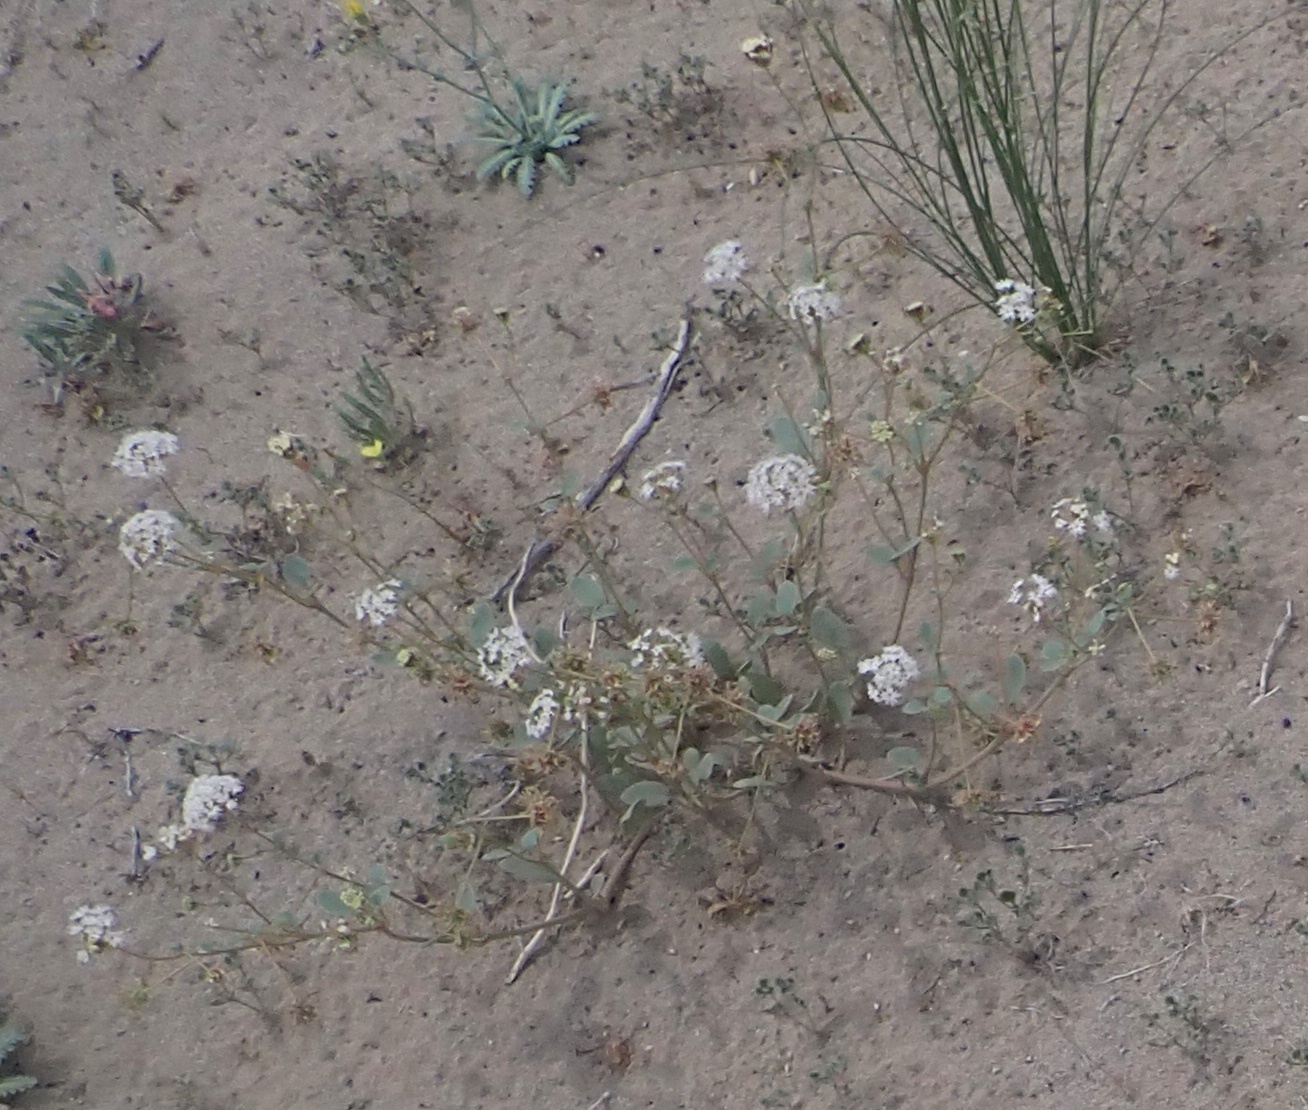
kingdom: Plantae
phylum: Tracheophyta
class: Magnoliopsida
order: Caryophyllales
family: Nyctaginaceae
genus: Abronia
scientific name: Abronia turbinata
